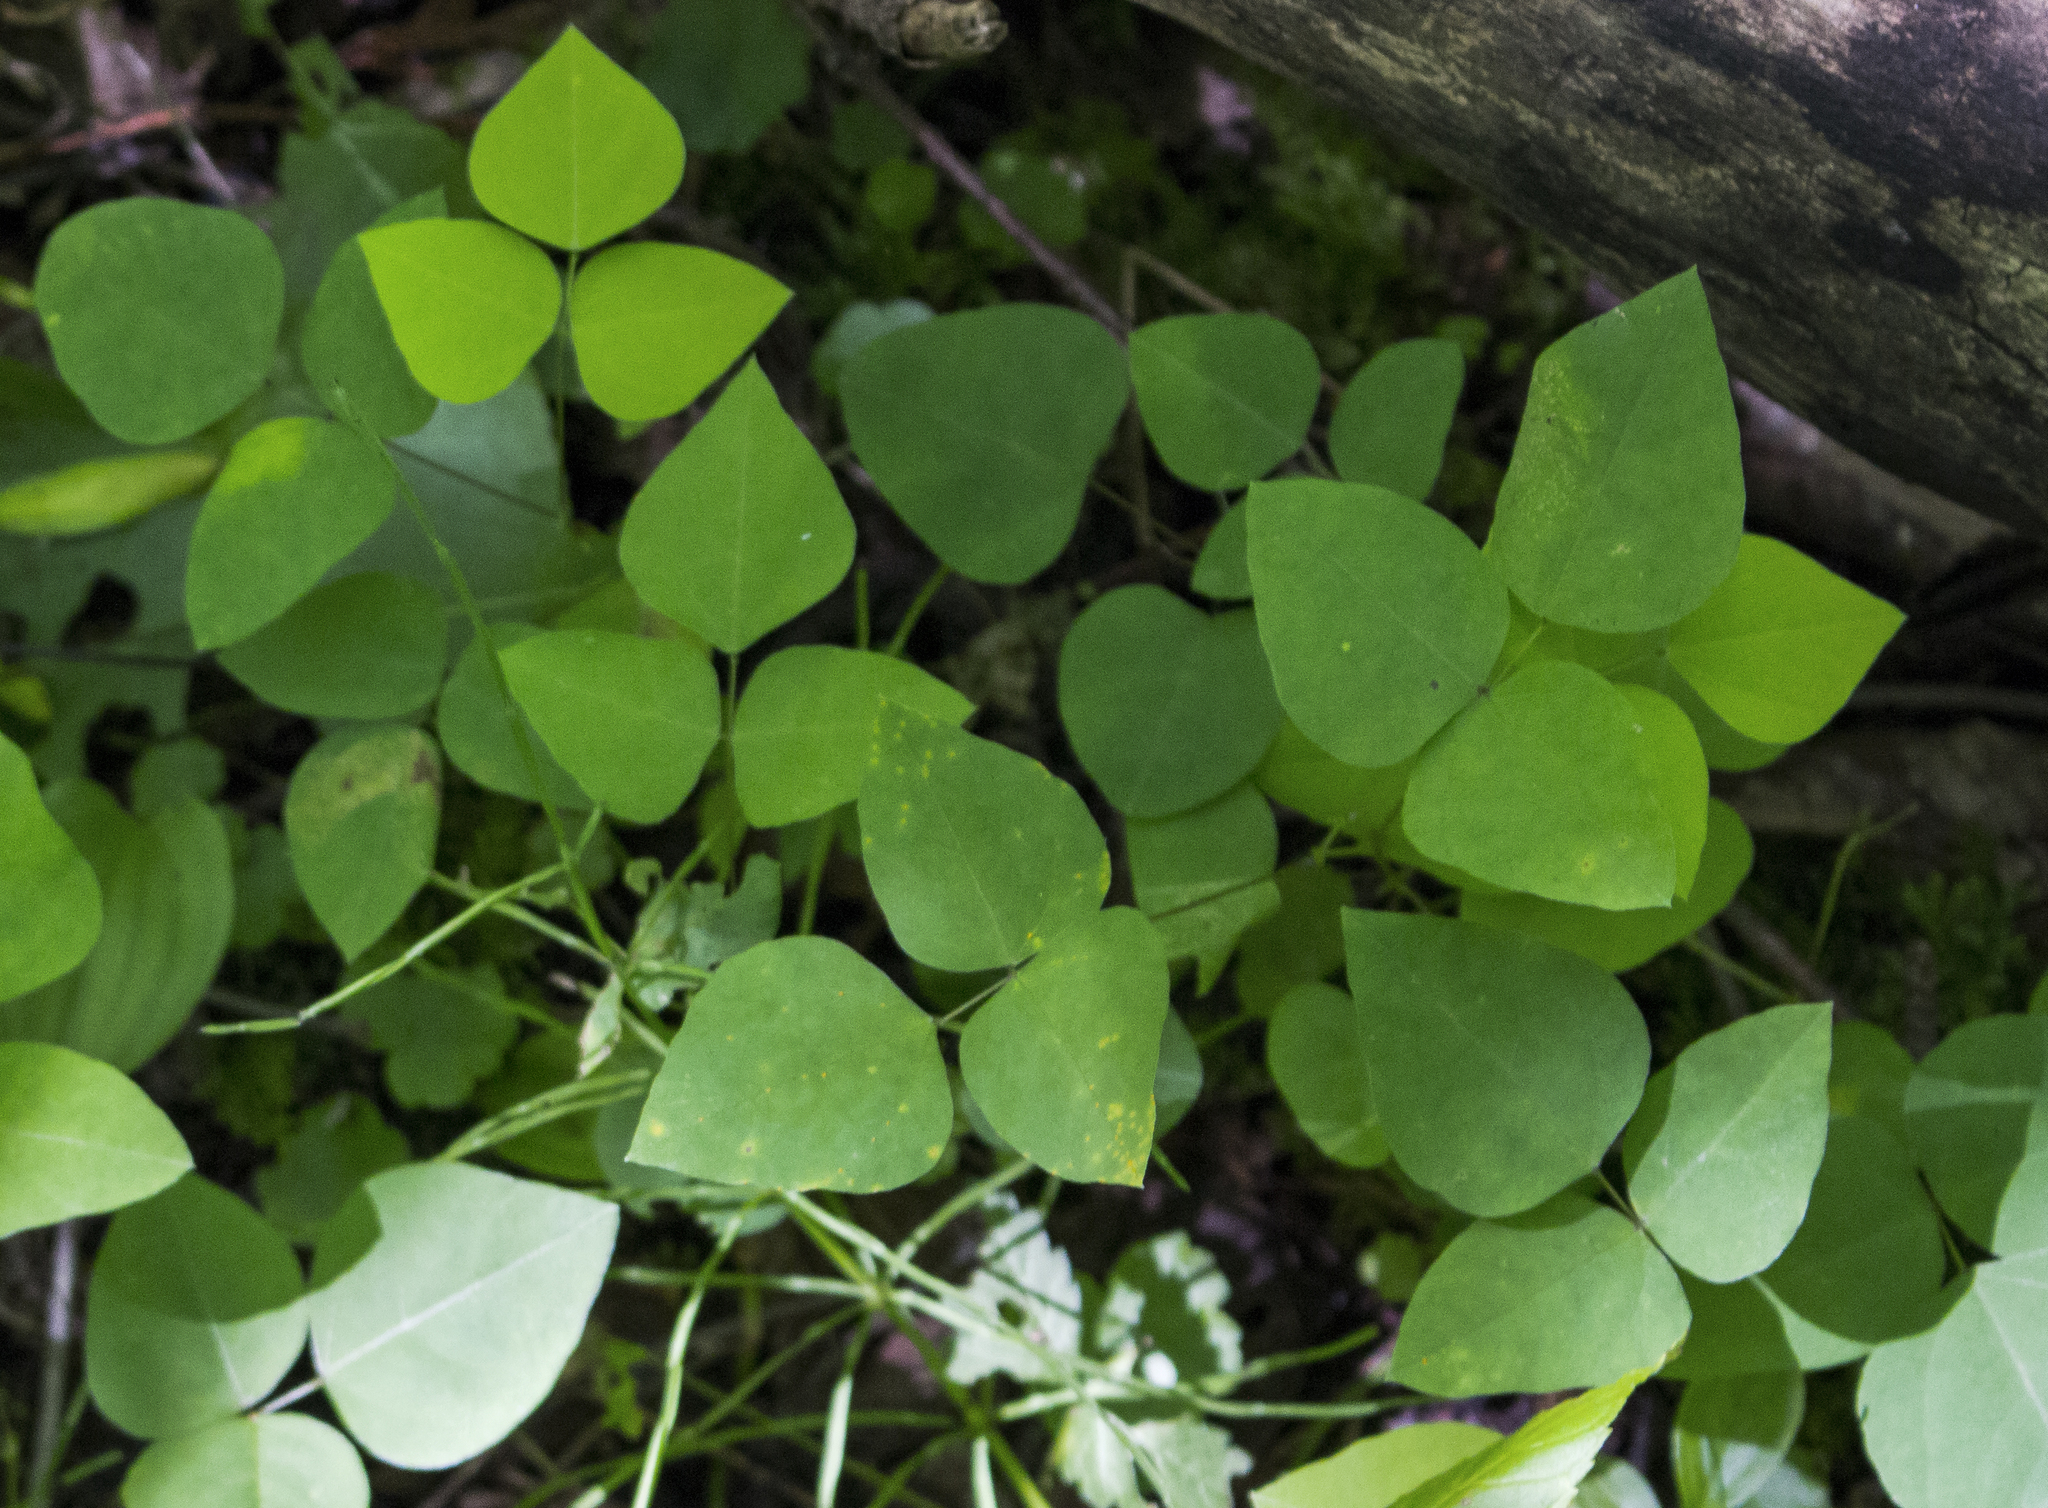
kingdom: Plantae
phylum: Tracheophyta
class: Magnoliopsida
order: Fabales
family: Fabaceae
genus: Amphicarpaea
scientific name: Amphicarpaea bracteata
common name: American hog peanut
